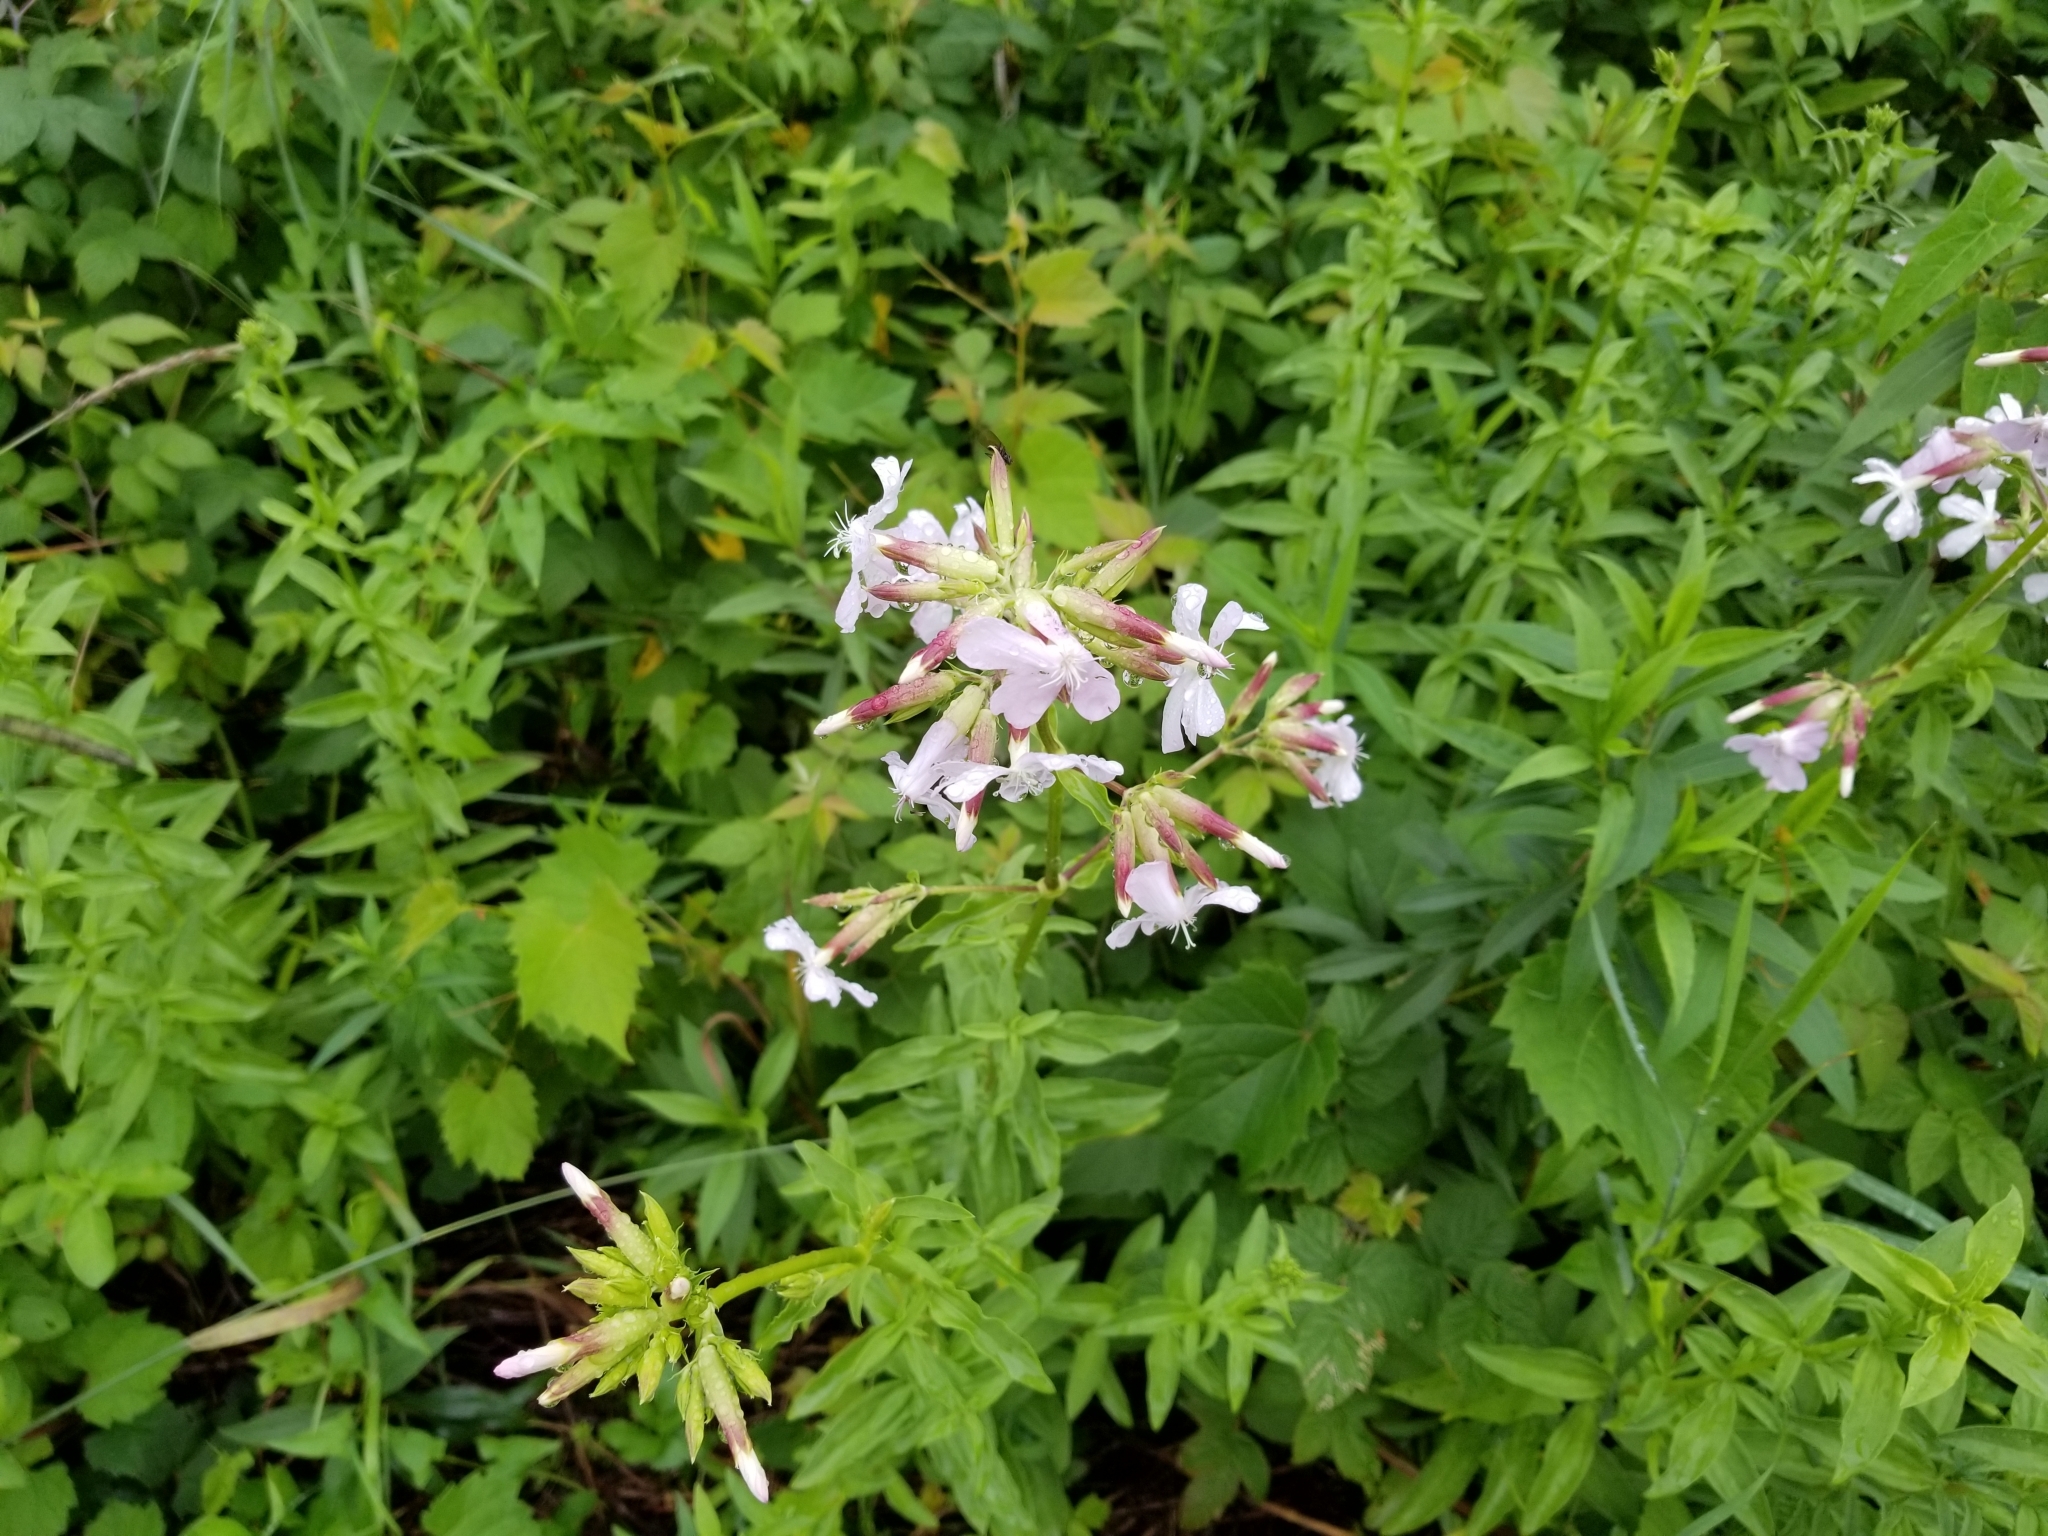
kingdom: Plantae
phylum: Tracheophyta
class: Magnoliopsida
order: Caryophyllales
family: Caryophyllaceae
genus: Saponaria
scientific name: Saponaria officinalis
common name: Soapwort
